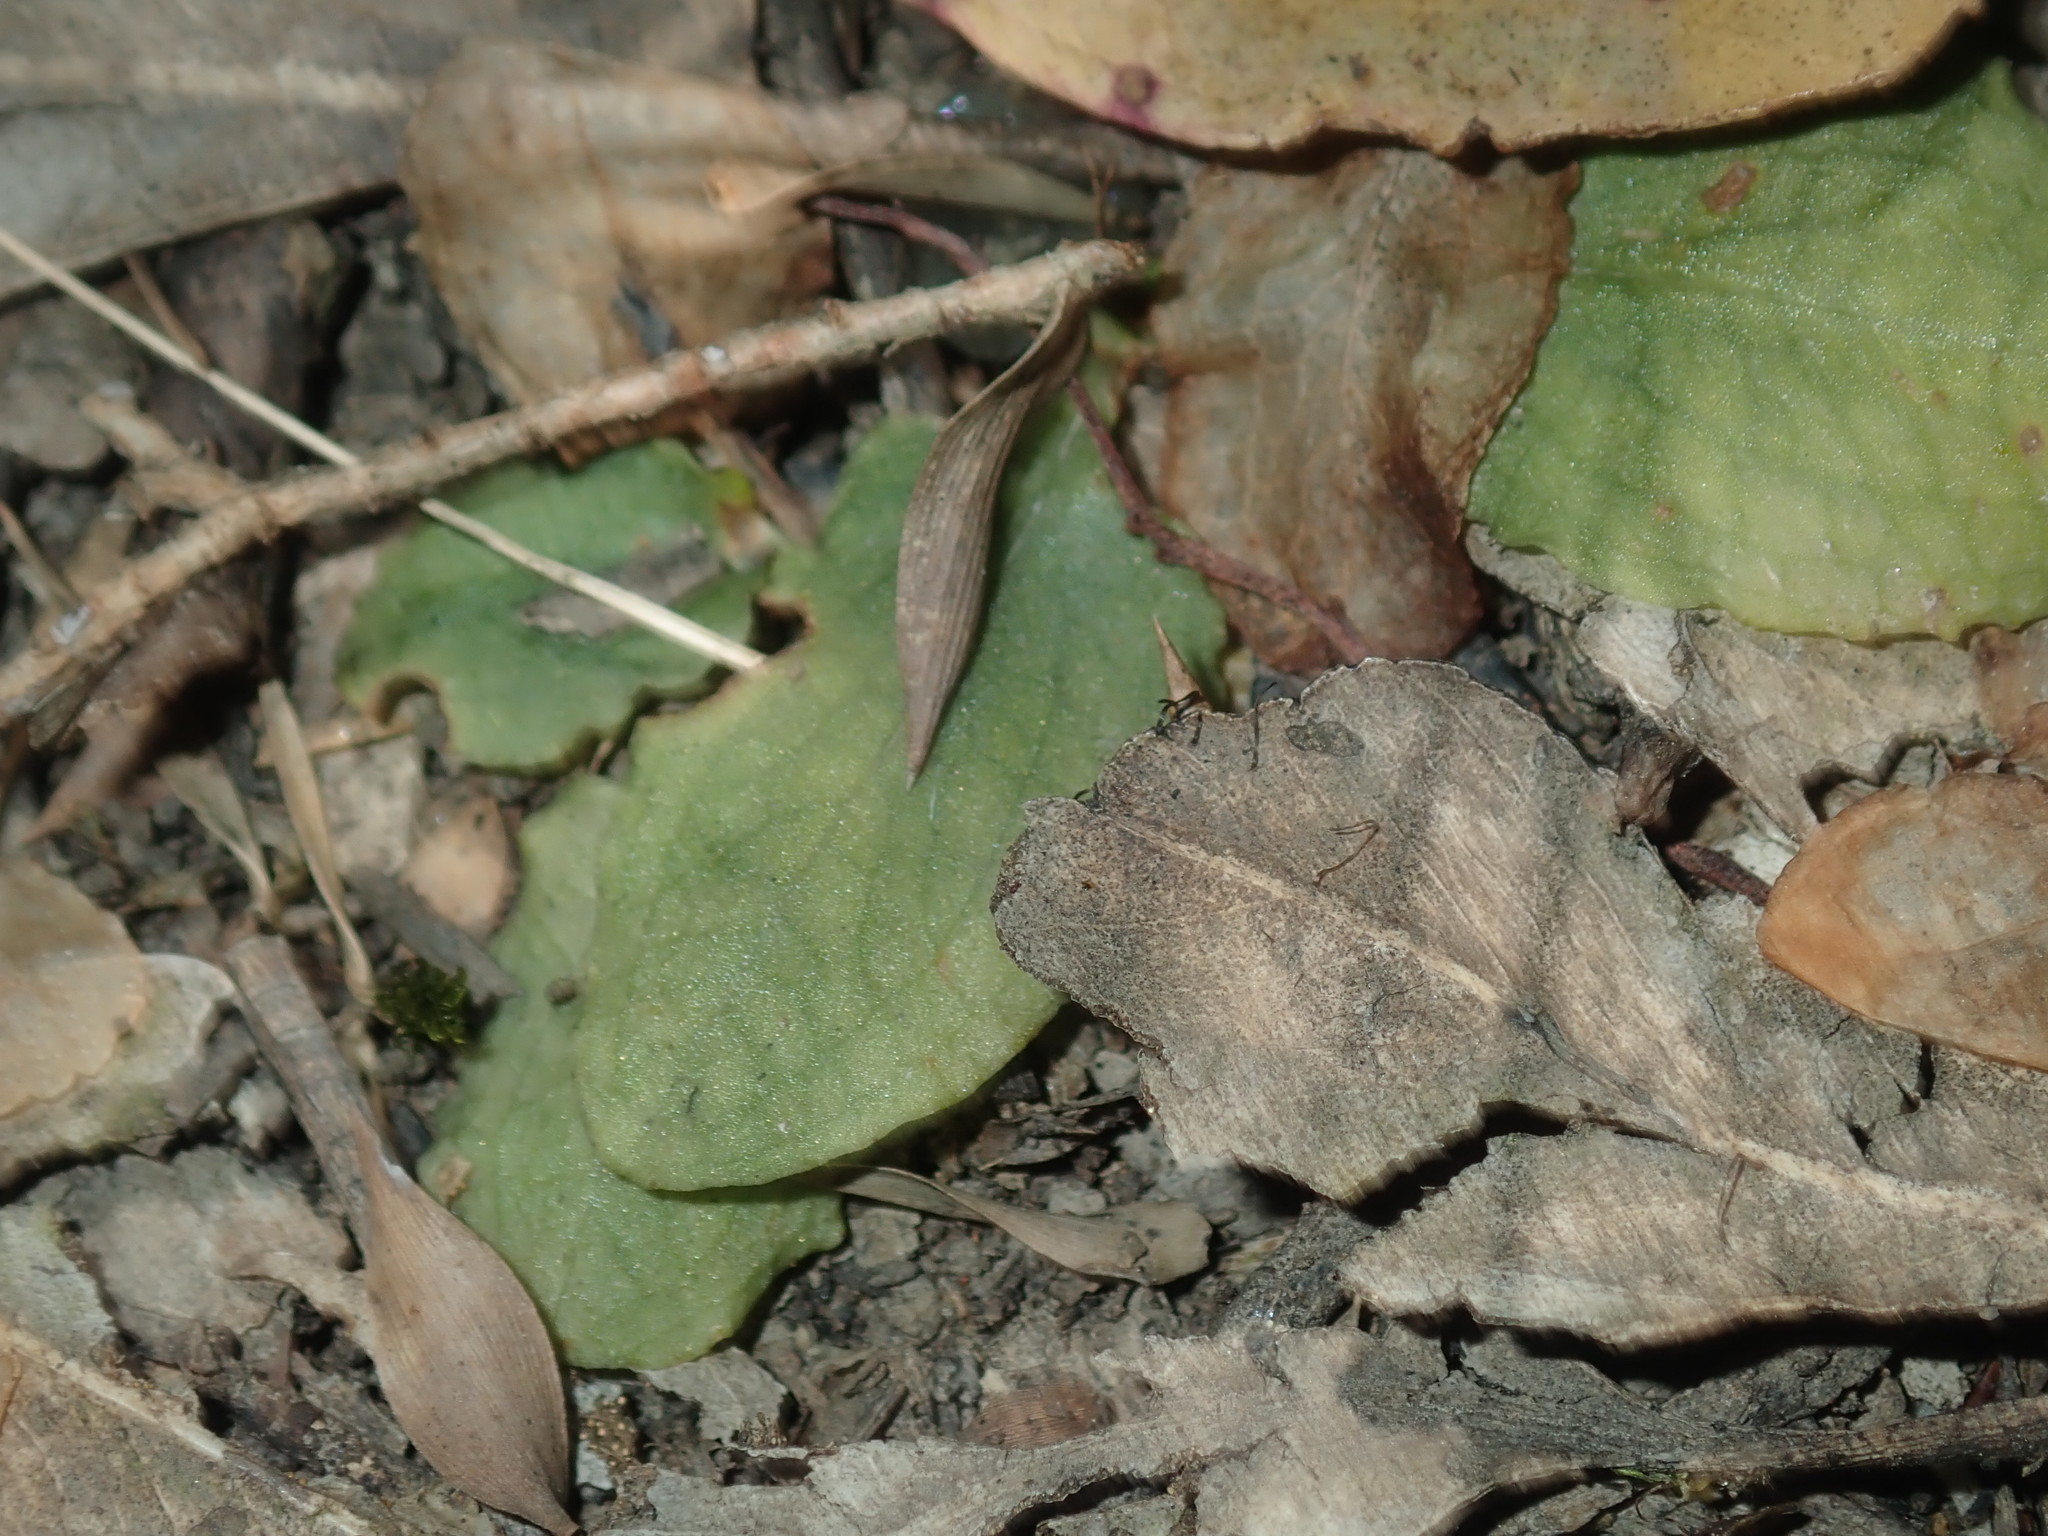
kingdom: Plantae
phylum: Tracheophyta
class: Liliopsida
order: Asparagales
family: Orchidaceae
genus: Pterostylis
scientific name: Pterostylis oblonga
